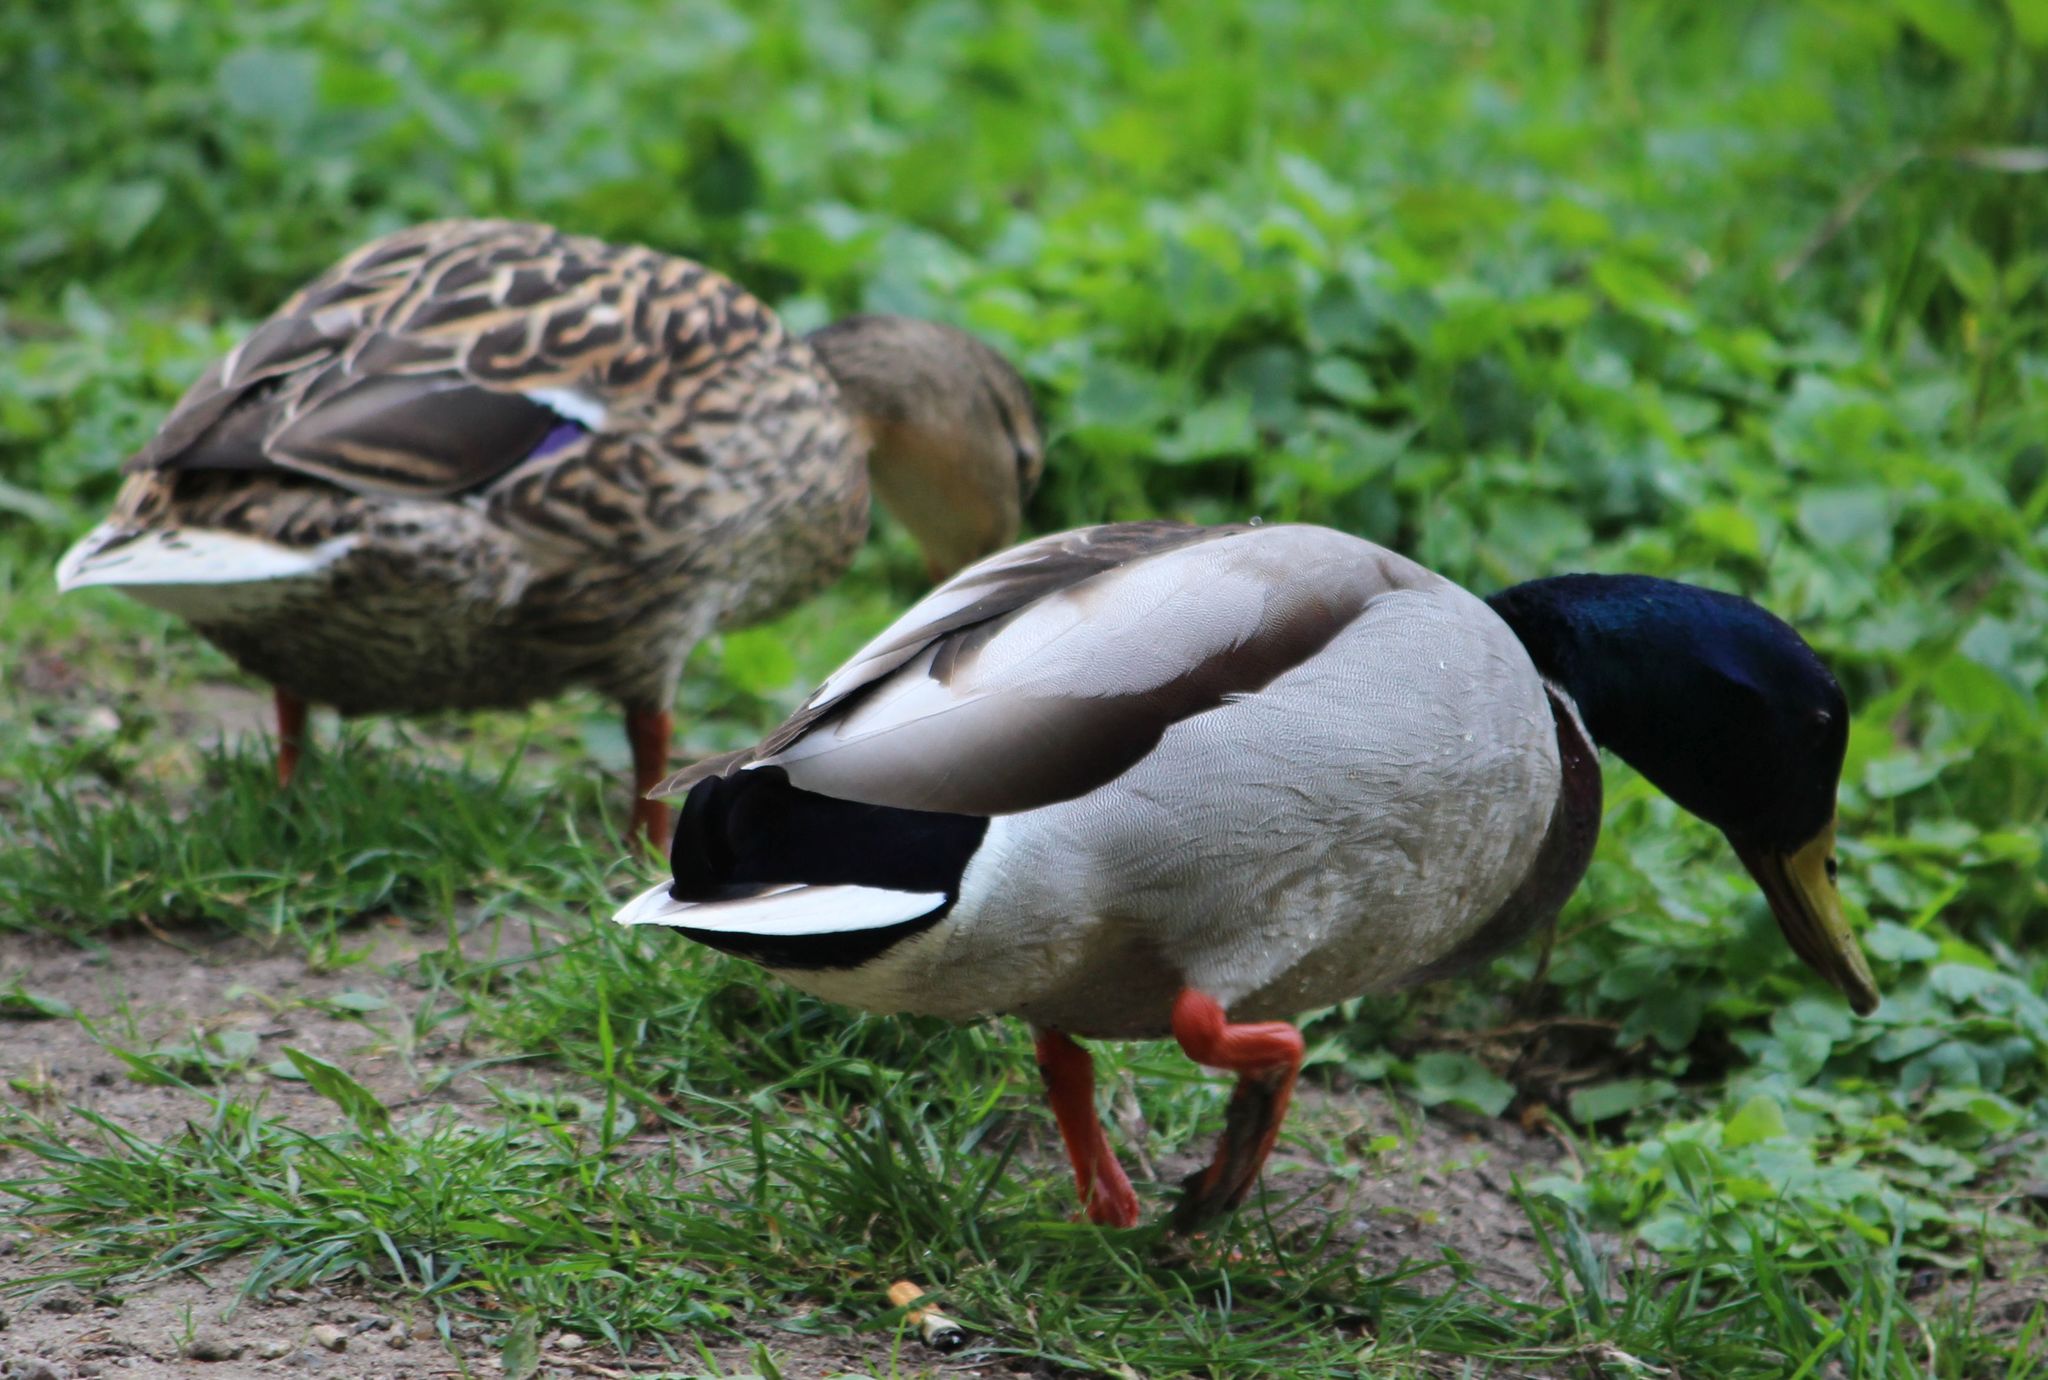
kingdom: Animalia
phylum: Chordata
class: Aves
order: Anseriformes
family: Anatidae
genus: Anas
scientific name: Anas platyrhynchos
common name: Mallard
